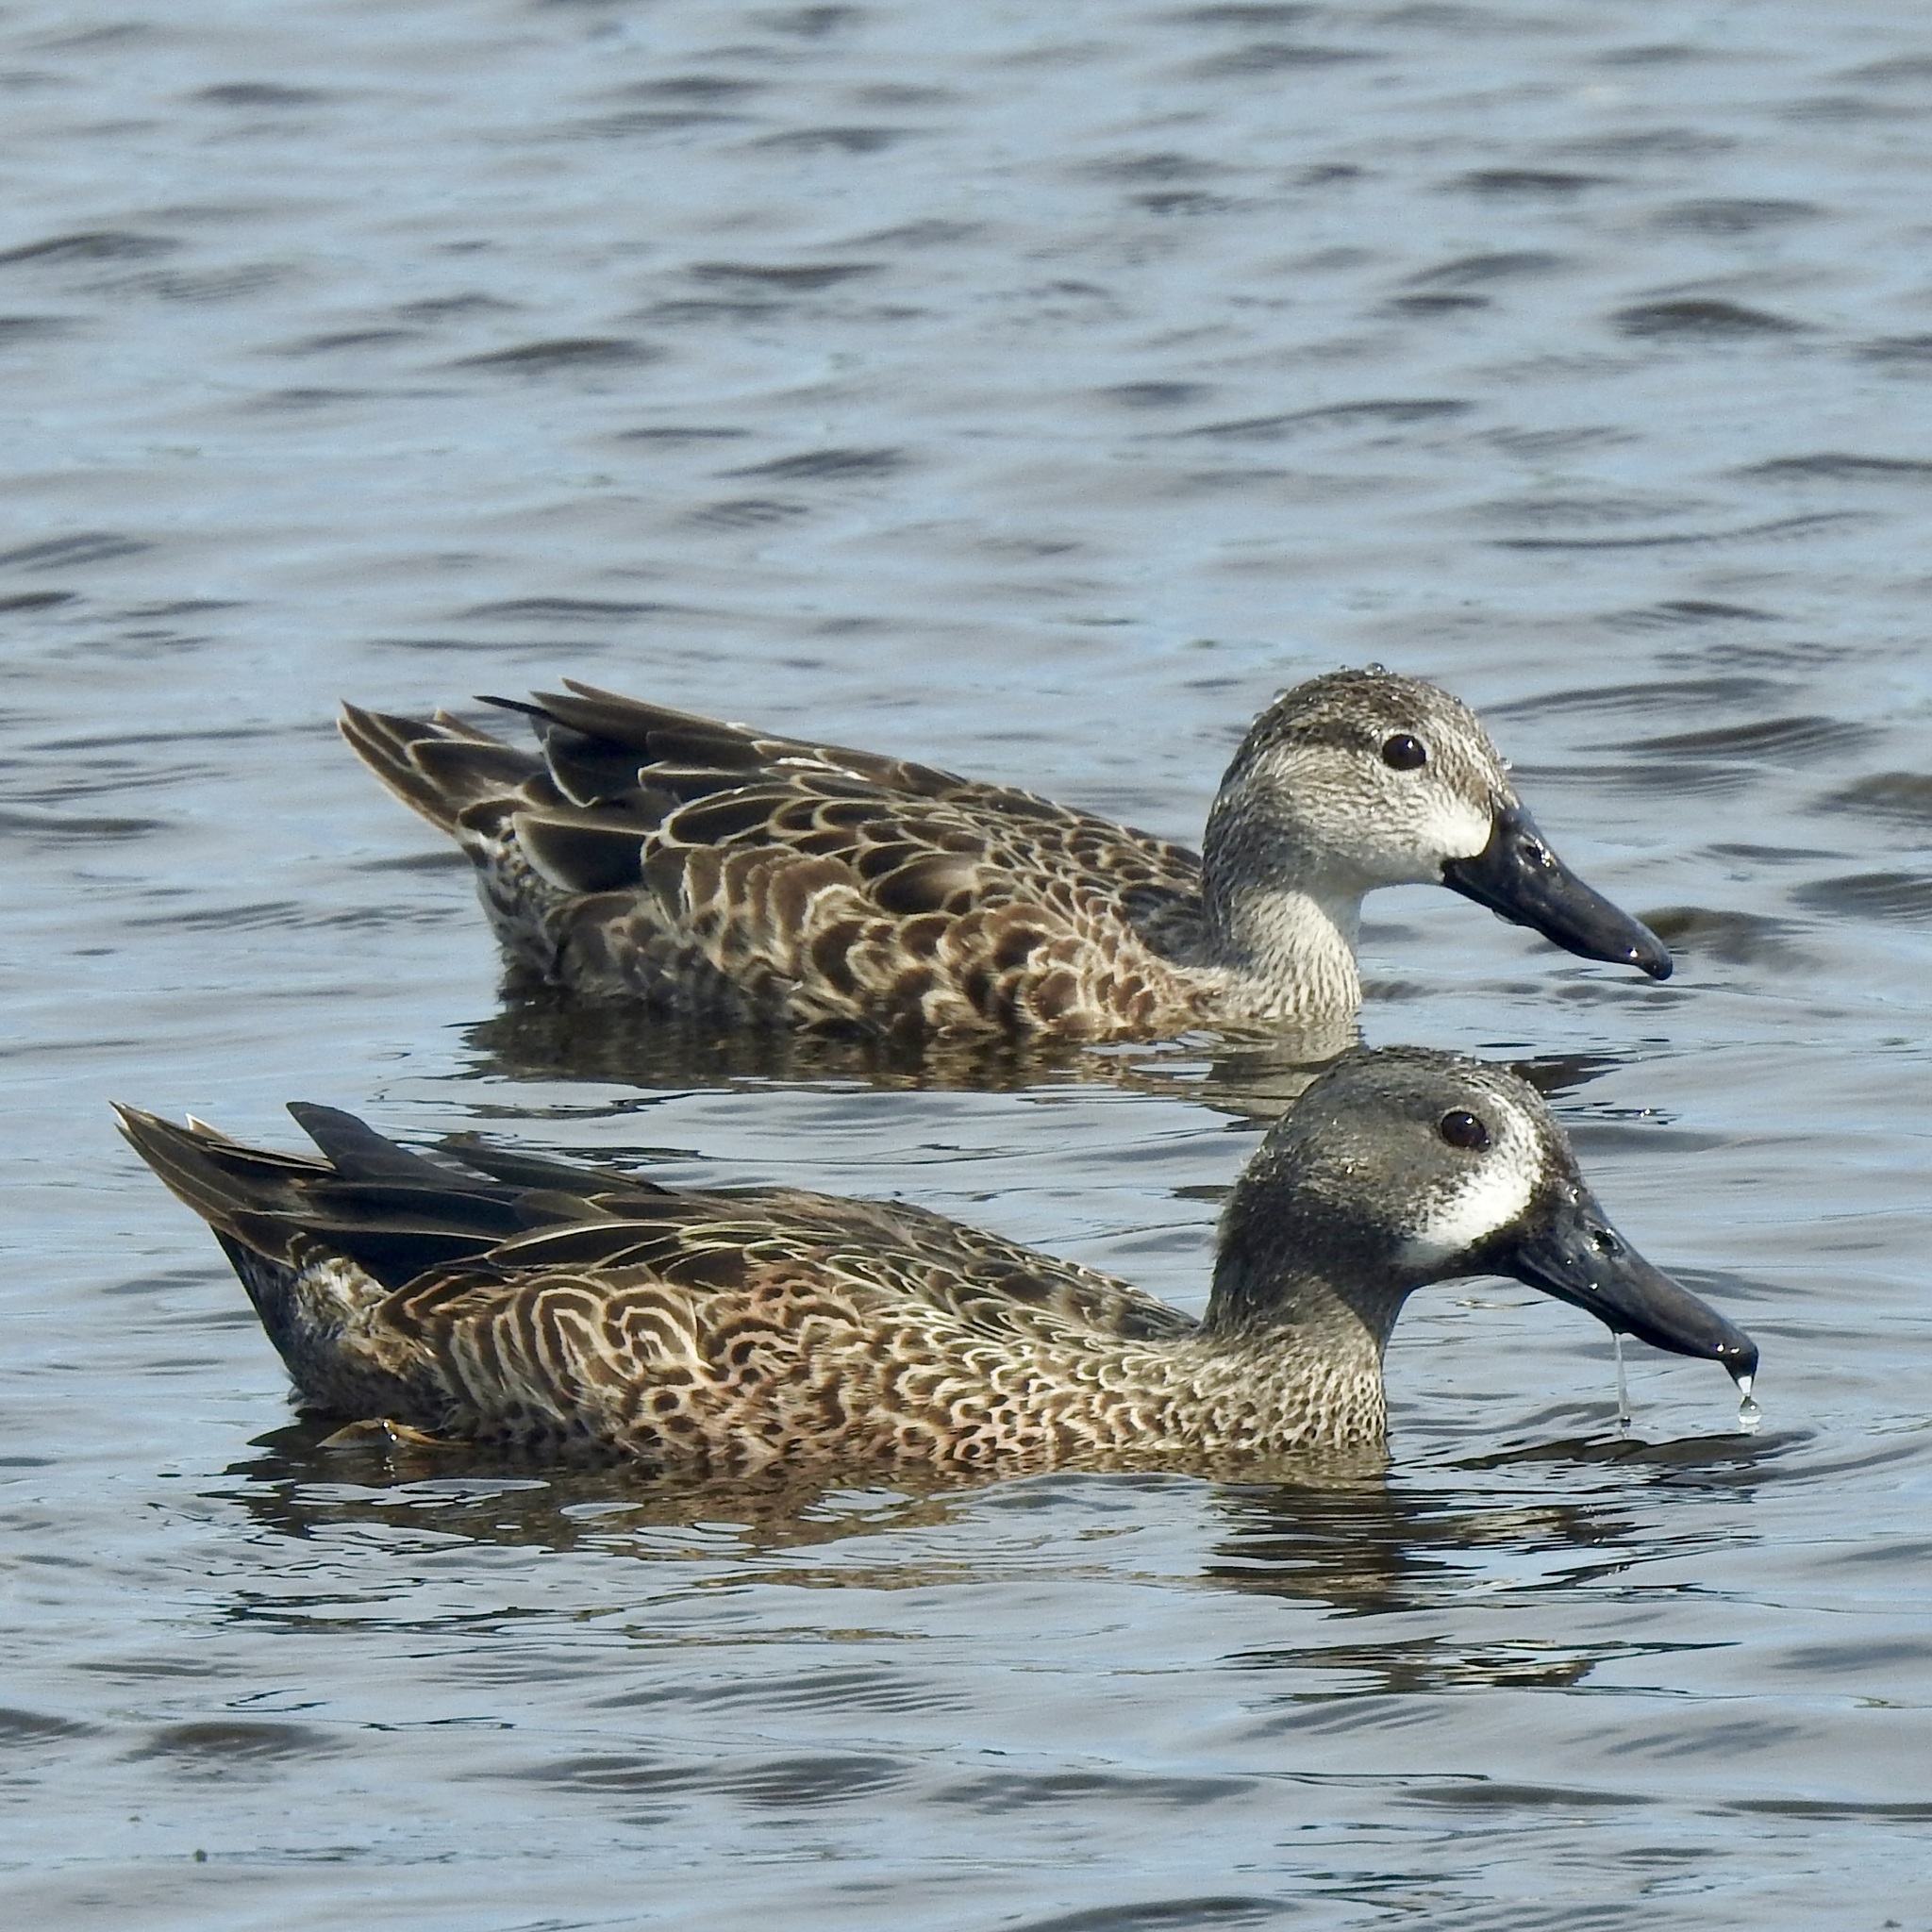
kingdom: Animalia
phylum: Chordata
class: Aves
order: Anseriformes
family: Anatidae
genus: Spatula
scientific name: Spatula discors
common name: Blue-winged teal
